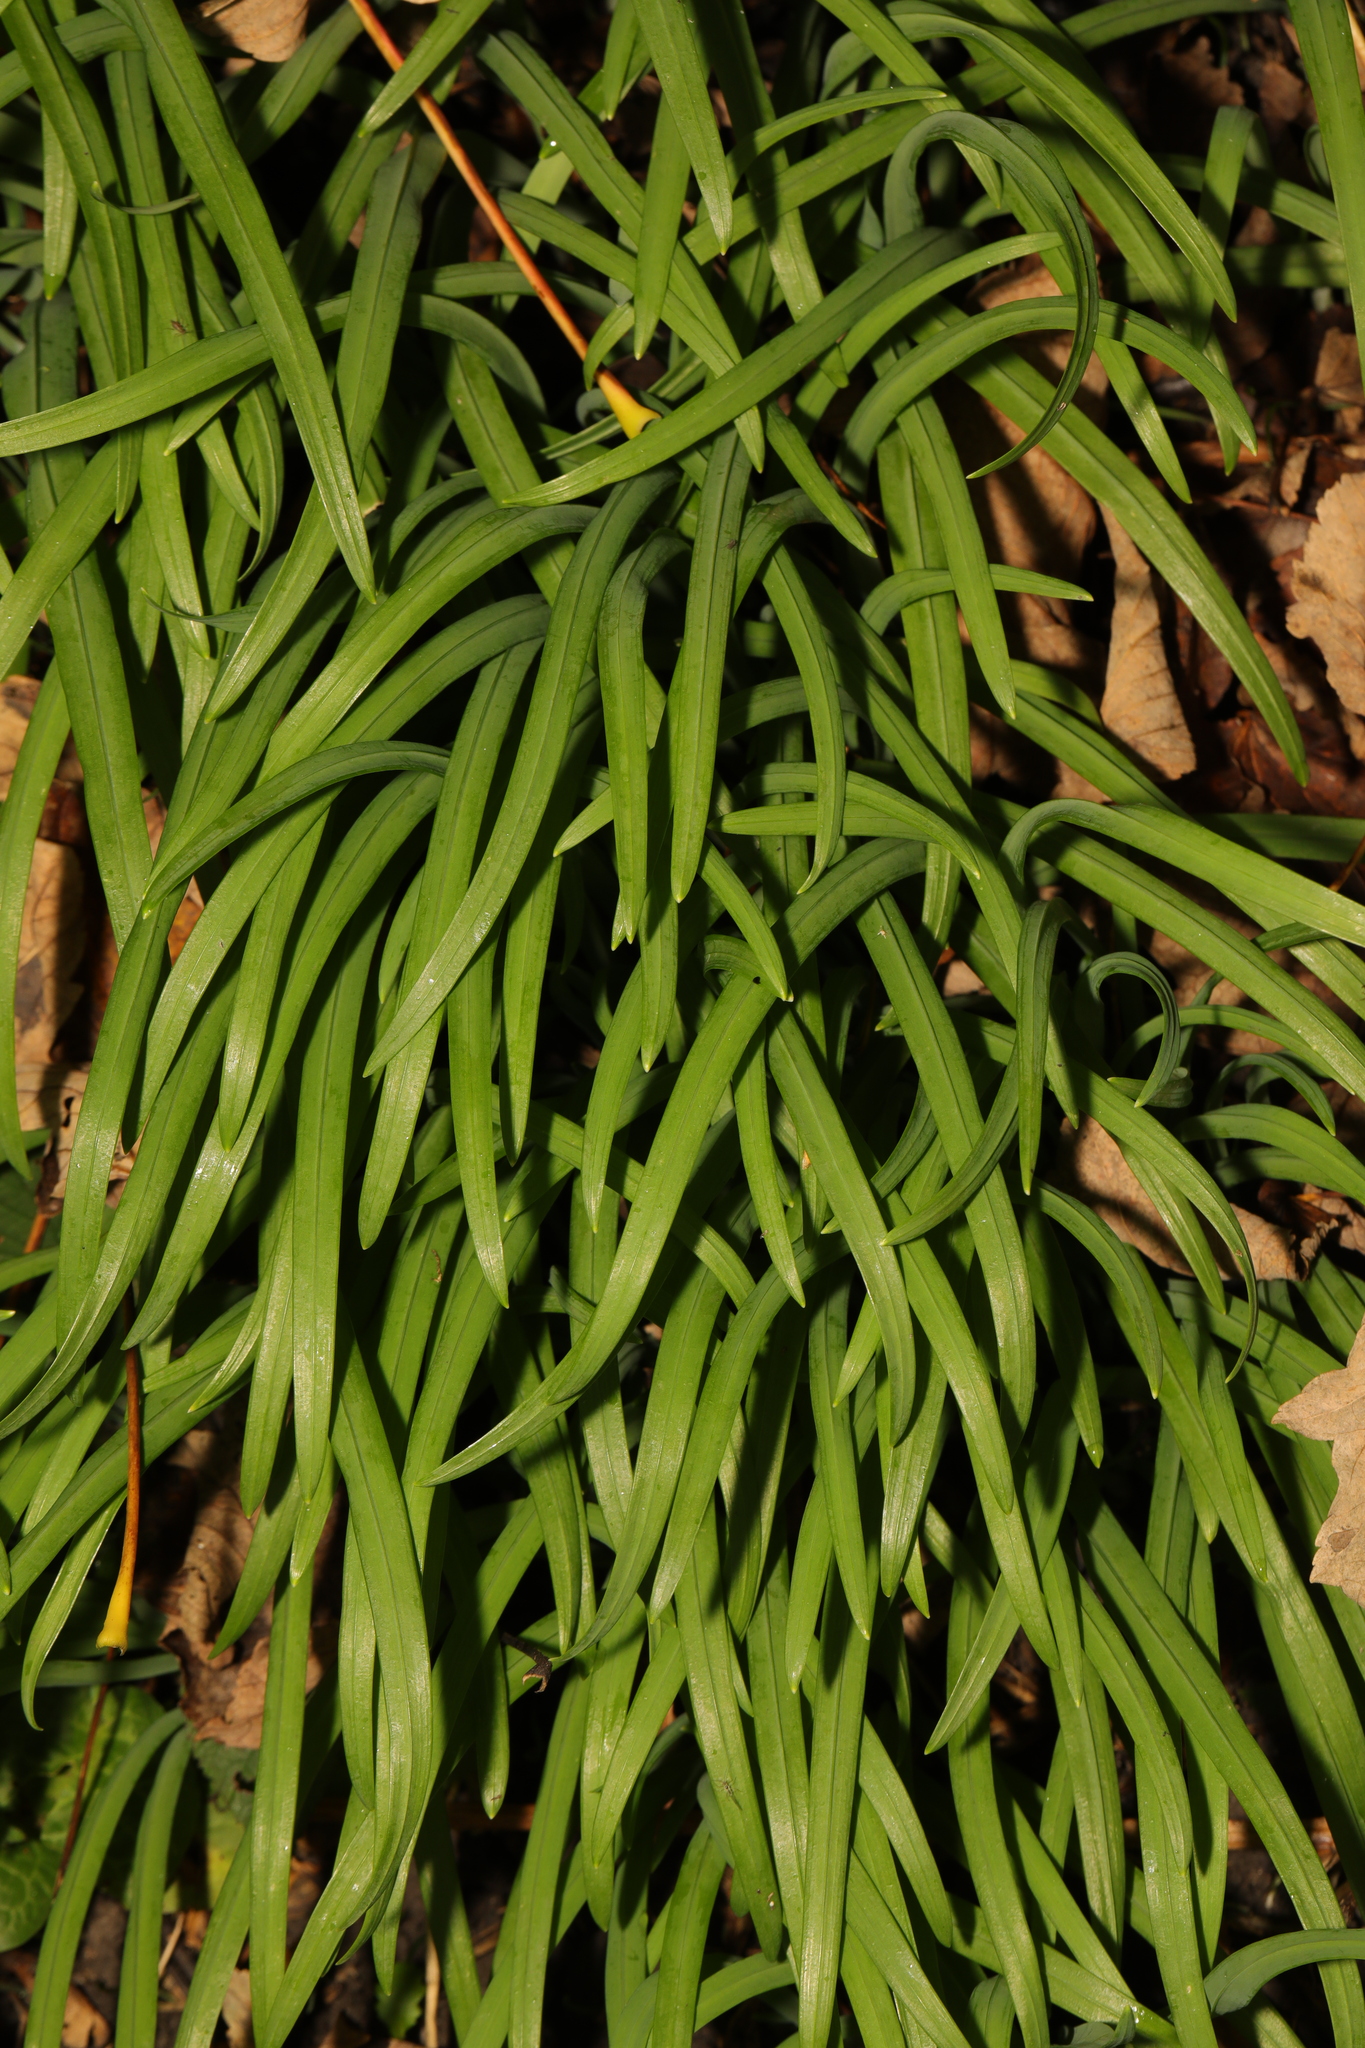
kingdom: Plantae
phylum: Tracheophyta
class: Liliopsida
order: Asparagales
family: Amaryllidaceae
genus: Allium
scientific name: Allium triquetrum
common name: Three-cornered garlic
